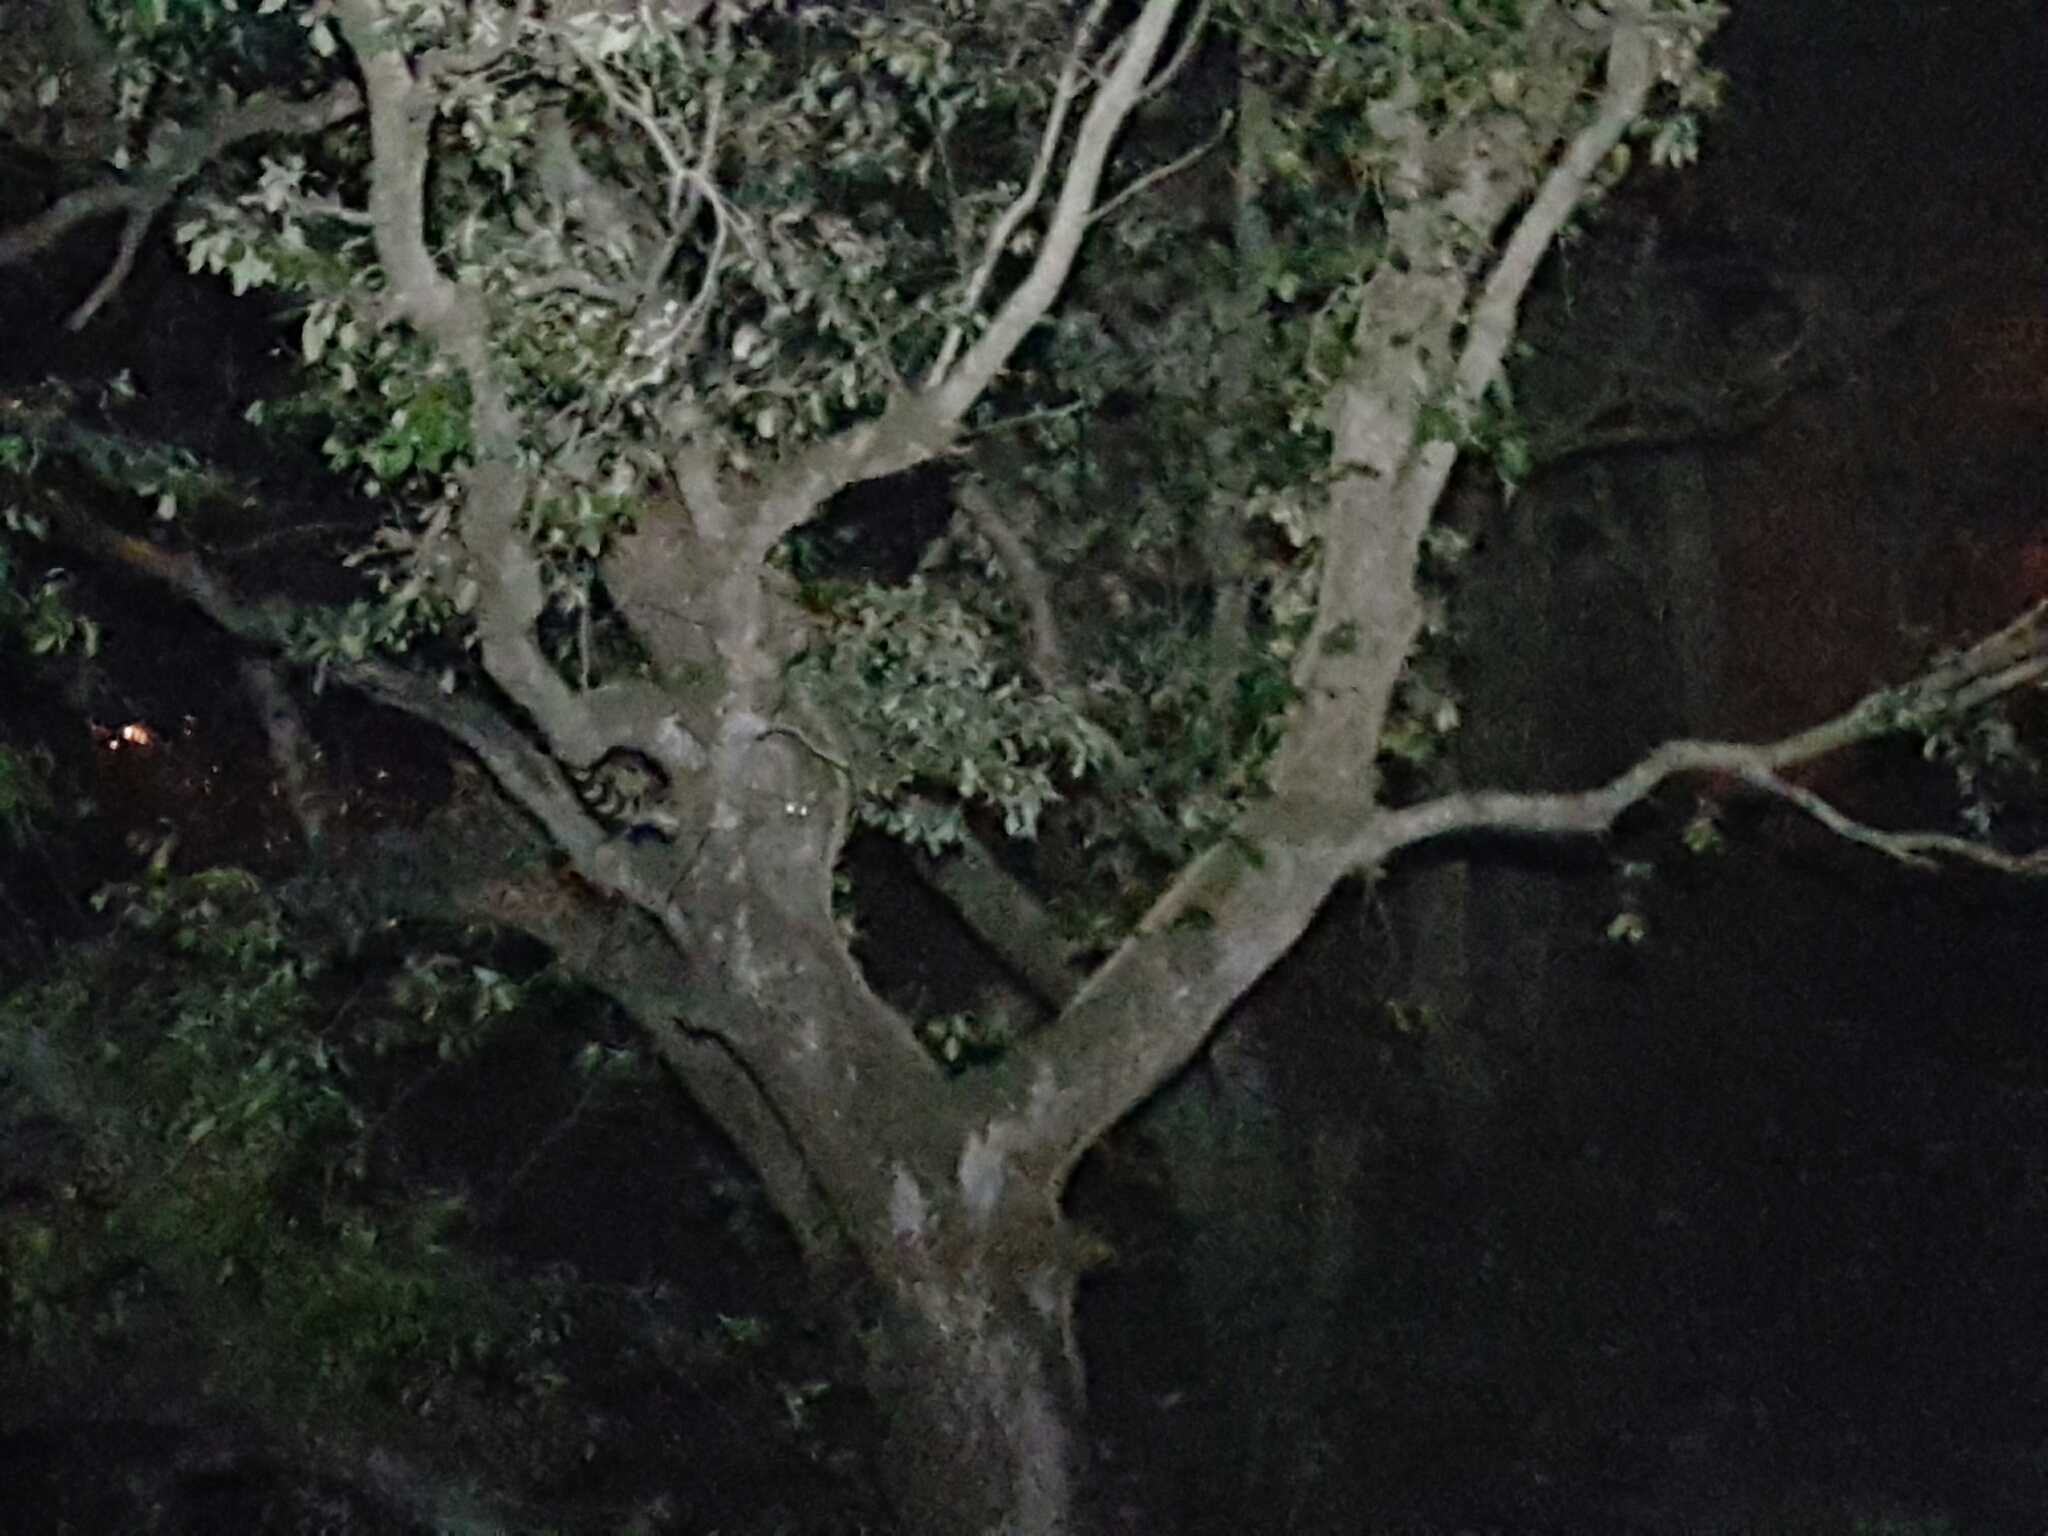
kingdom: Animalia
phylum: Chordata
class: Mammalia
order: Carnivora
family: Viverridae
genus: Genetta
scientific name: Genetta genetta
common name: Common genet
